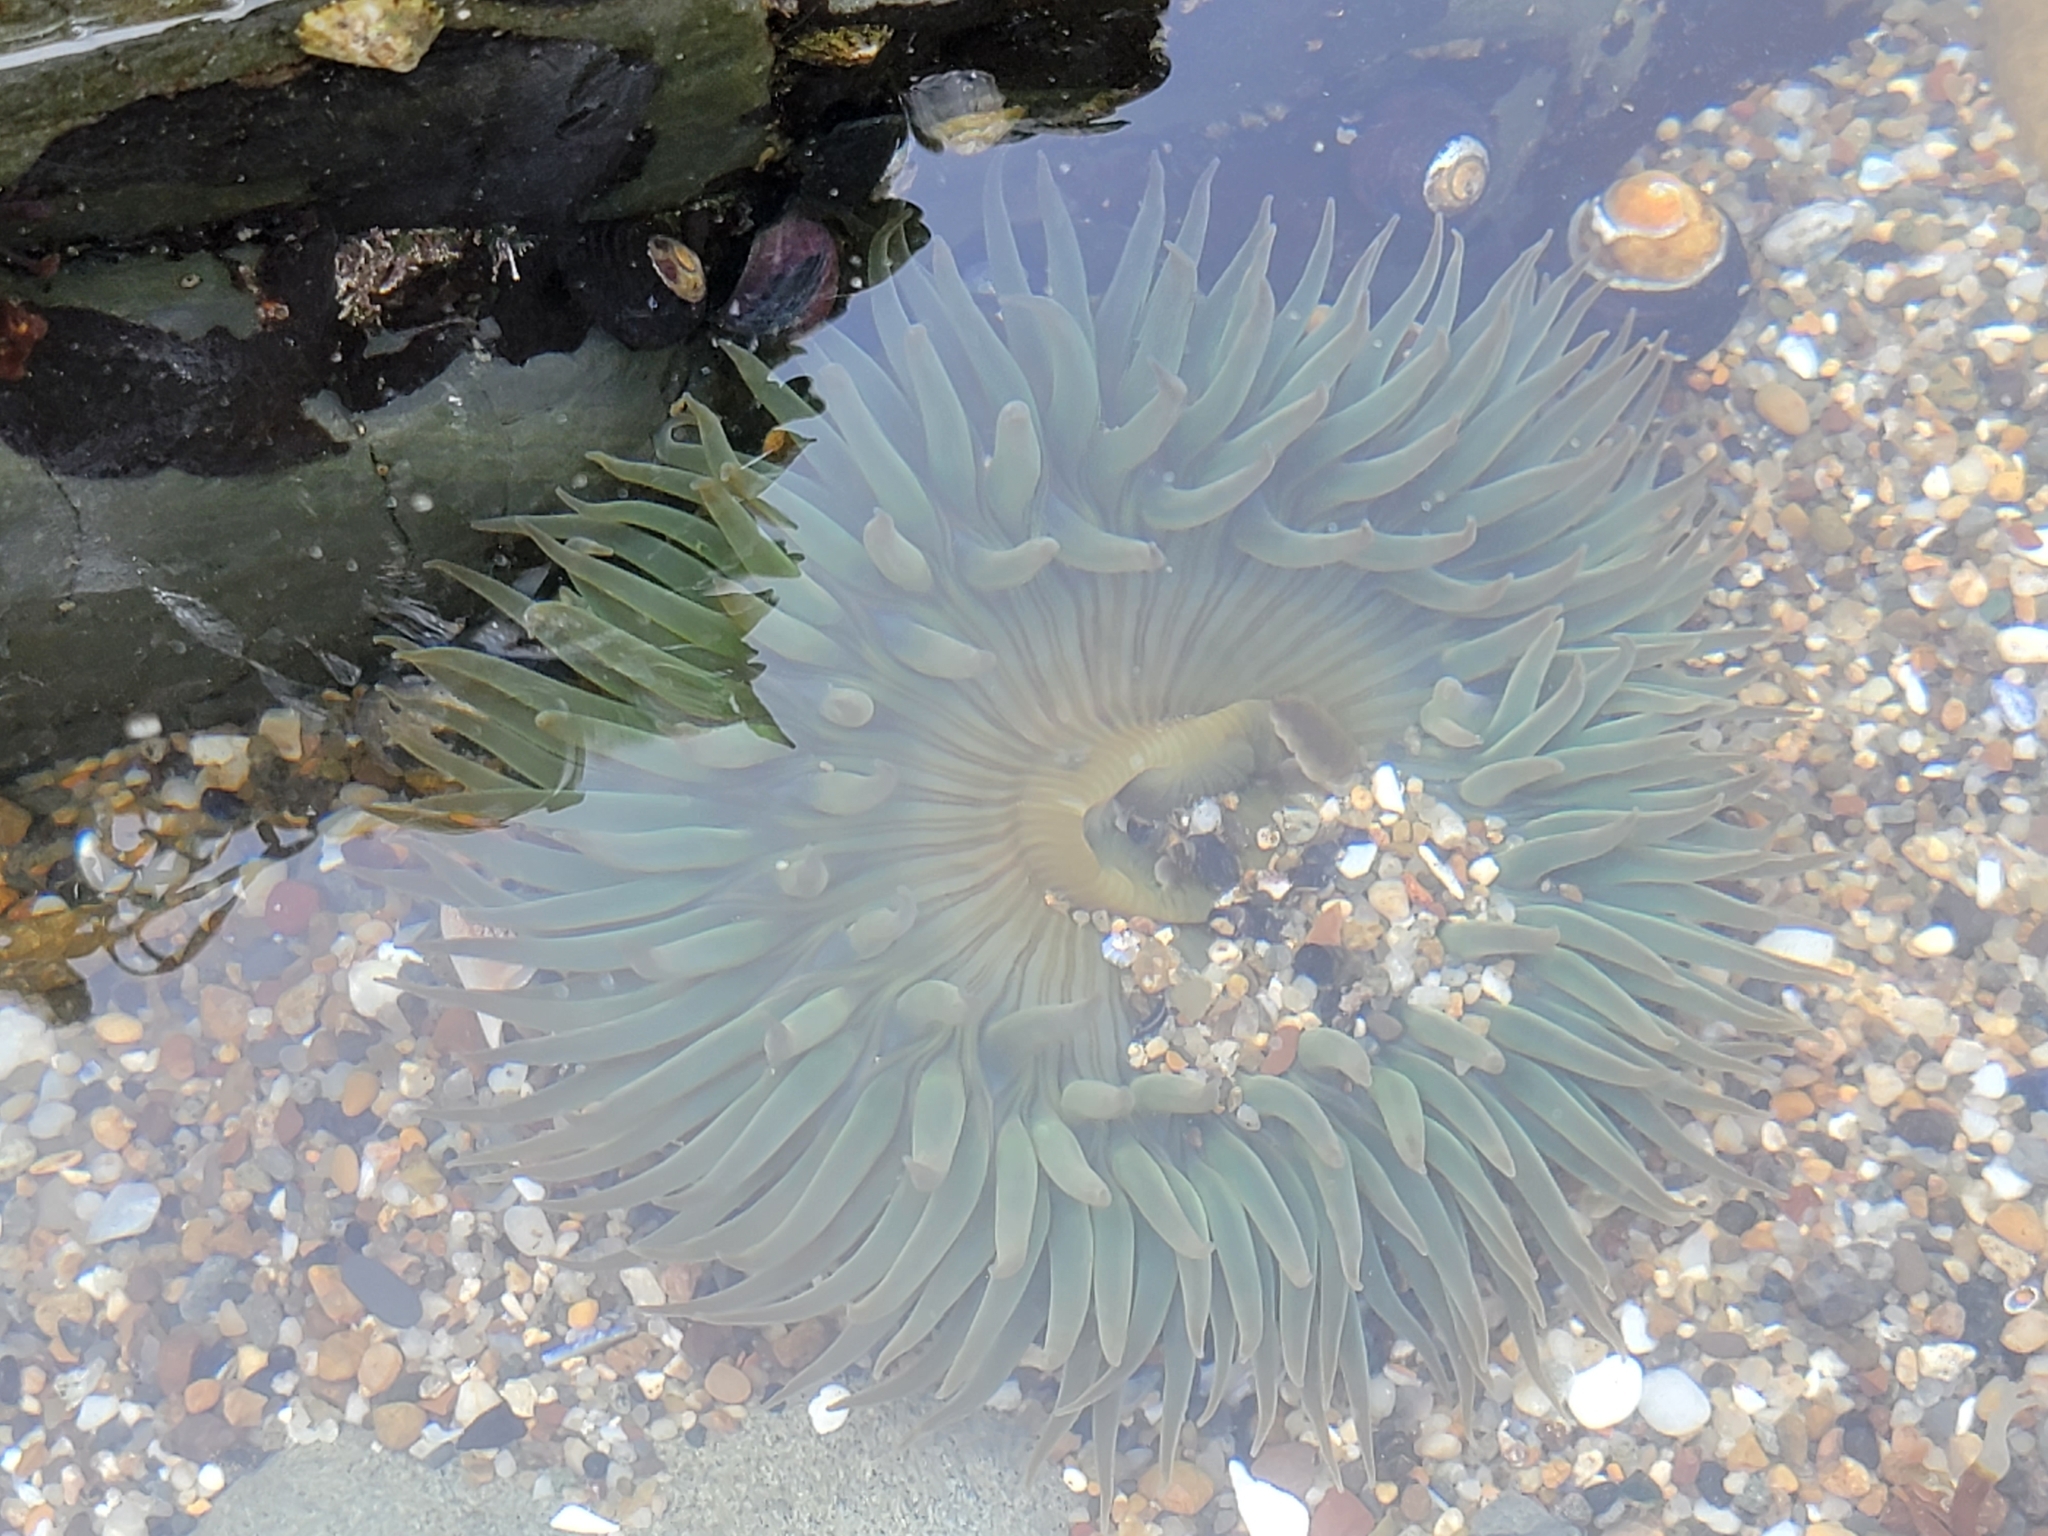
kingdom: Animalia
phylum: Cnidaria
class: Anthozoa
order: Actiniaria
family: Actiniidae
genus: Anthopleura
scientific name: Anthopleura sola
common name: Sun anemone
